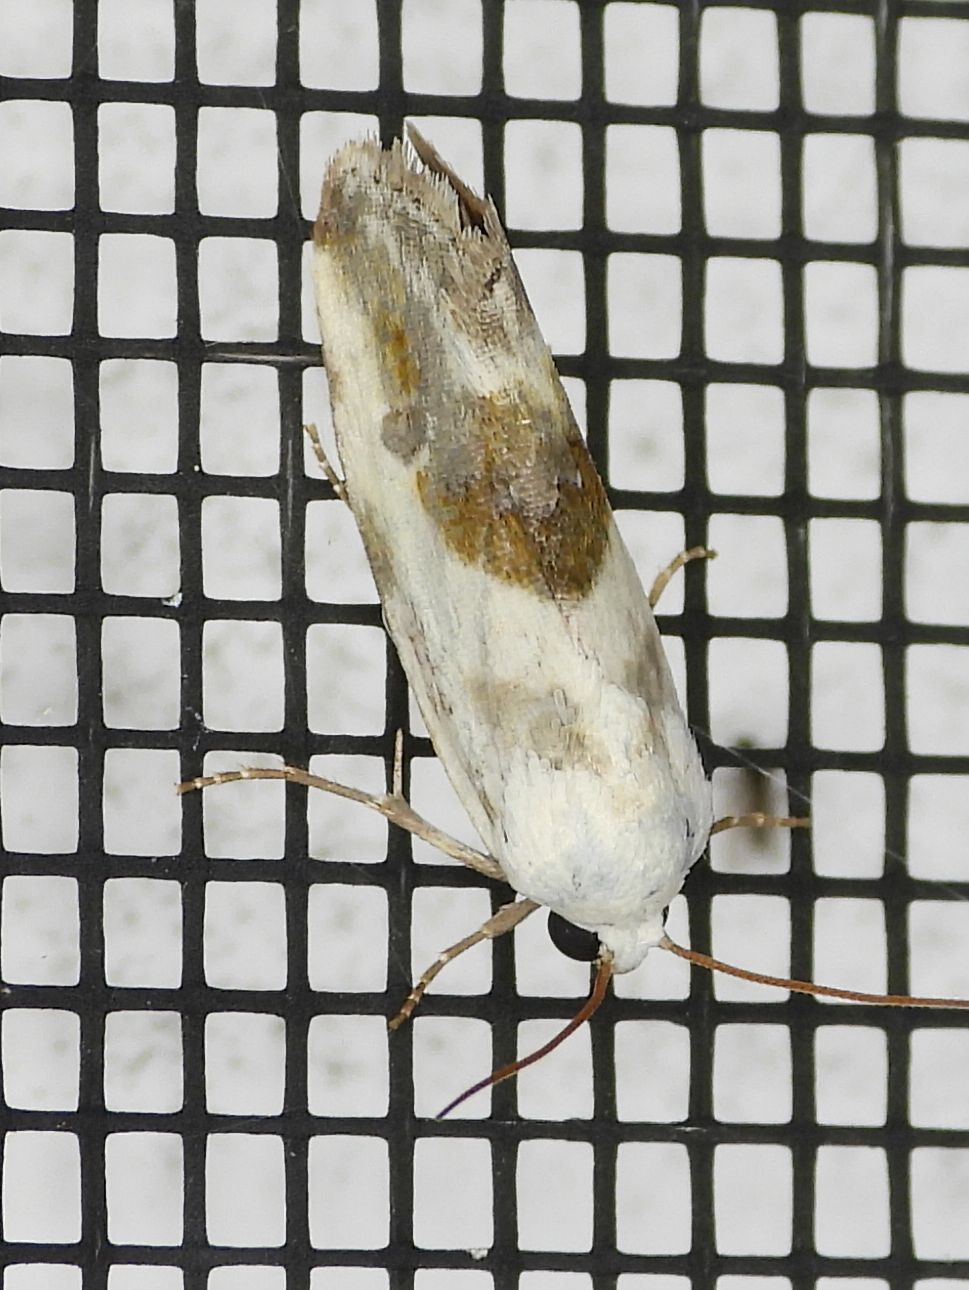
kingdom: Animalia
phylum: Arthropoda
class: Insecta
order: Lepidoptera
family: Noctuidae
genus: Acontia
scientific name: Acontia candefacta
